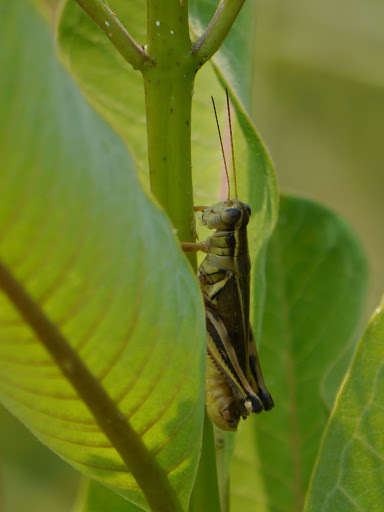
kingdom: Animalia
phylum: Arthropoda
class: Insecta
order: Orthoptera
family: Acrididae
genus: Melanoplus
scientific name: Melanoplus bivittatus
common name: Two-striped grasshopper
